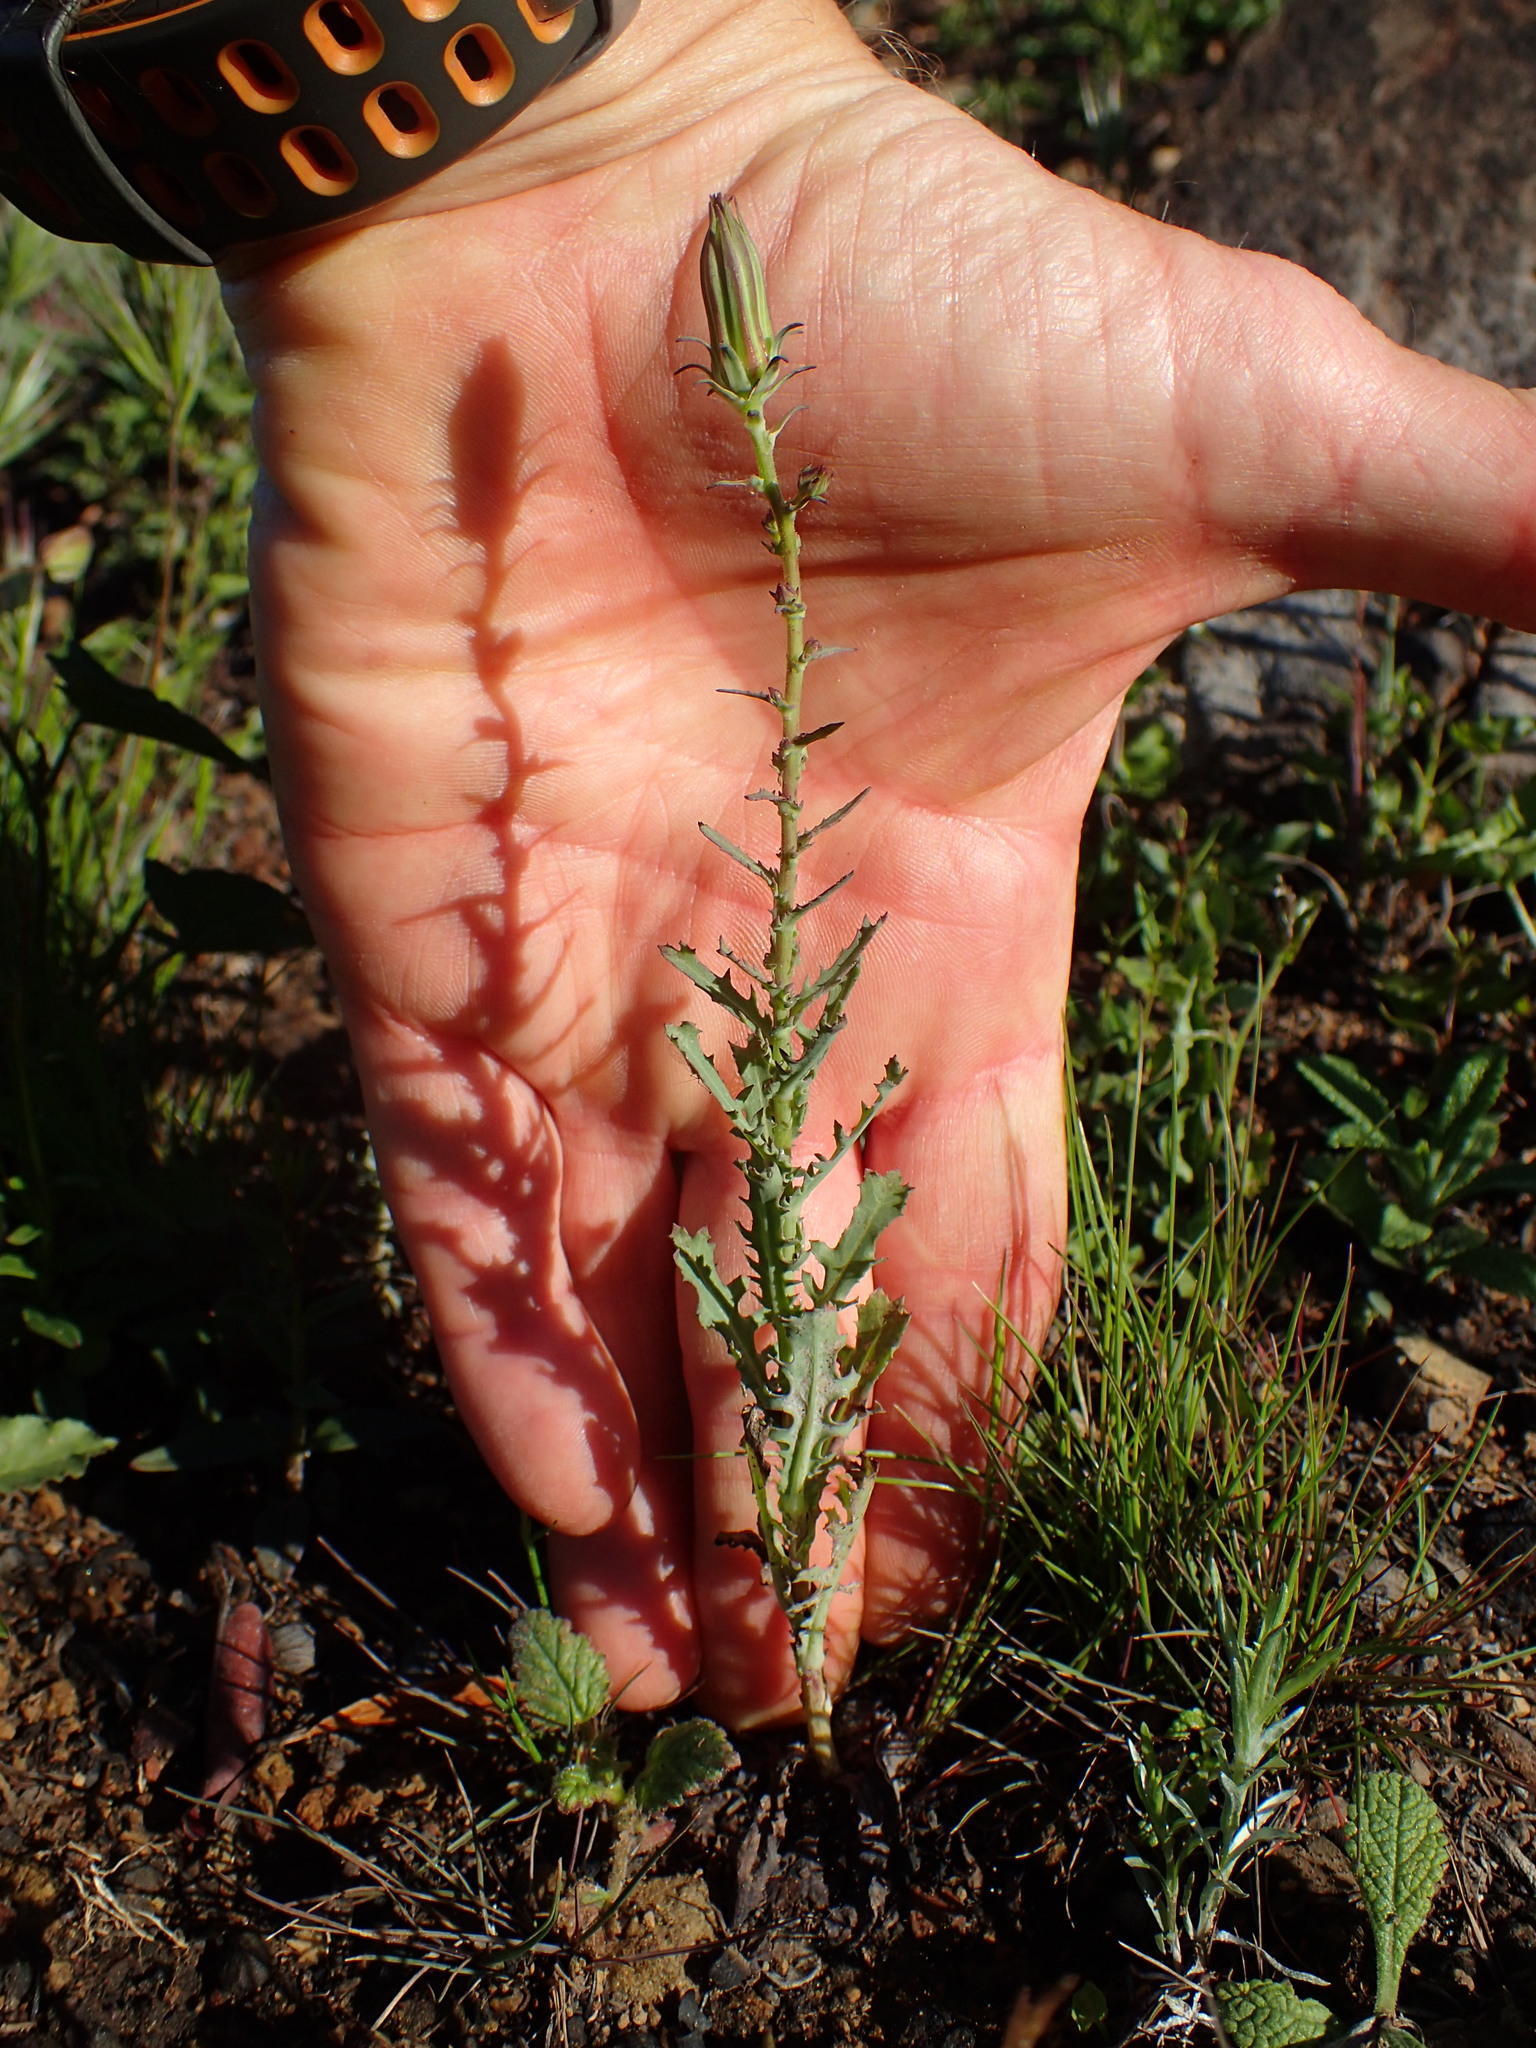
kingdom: Plantae
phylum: Tracheophyta
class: Magnoliopsida
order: Asterales
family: Asteraceae
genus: Rafinesquia
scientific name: Rafinesquia californica
